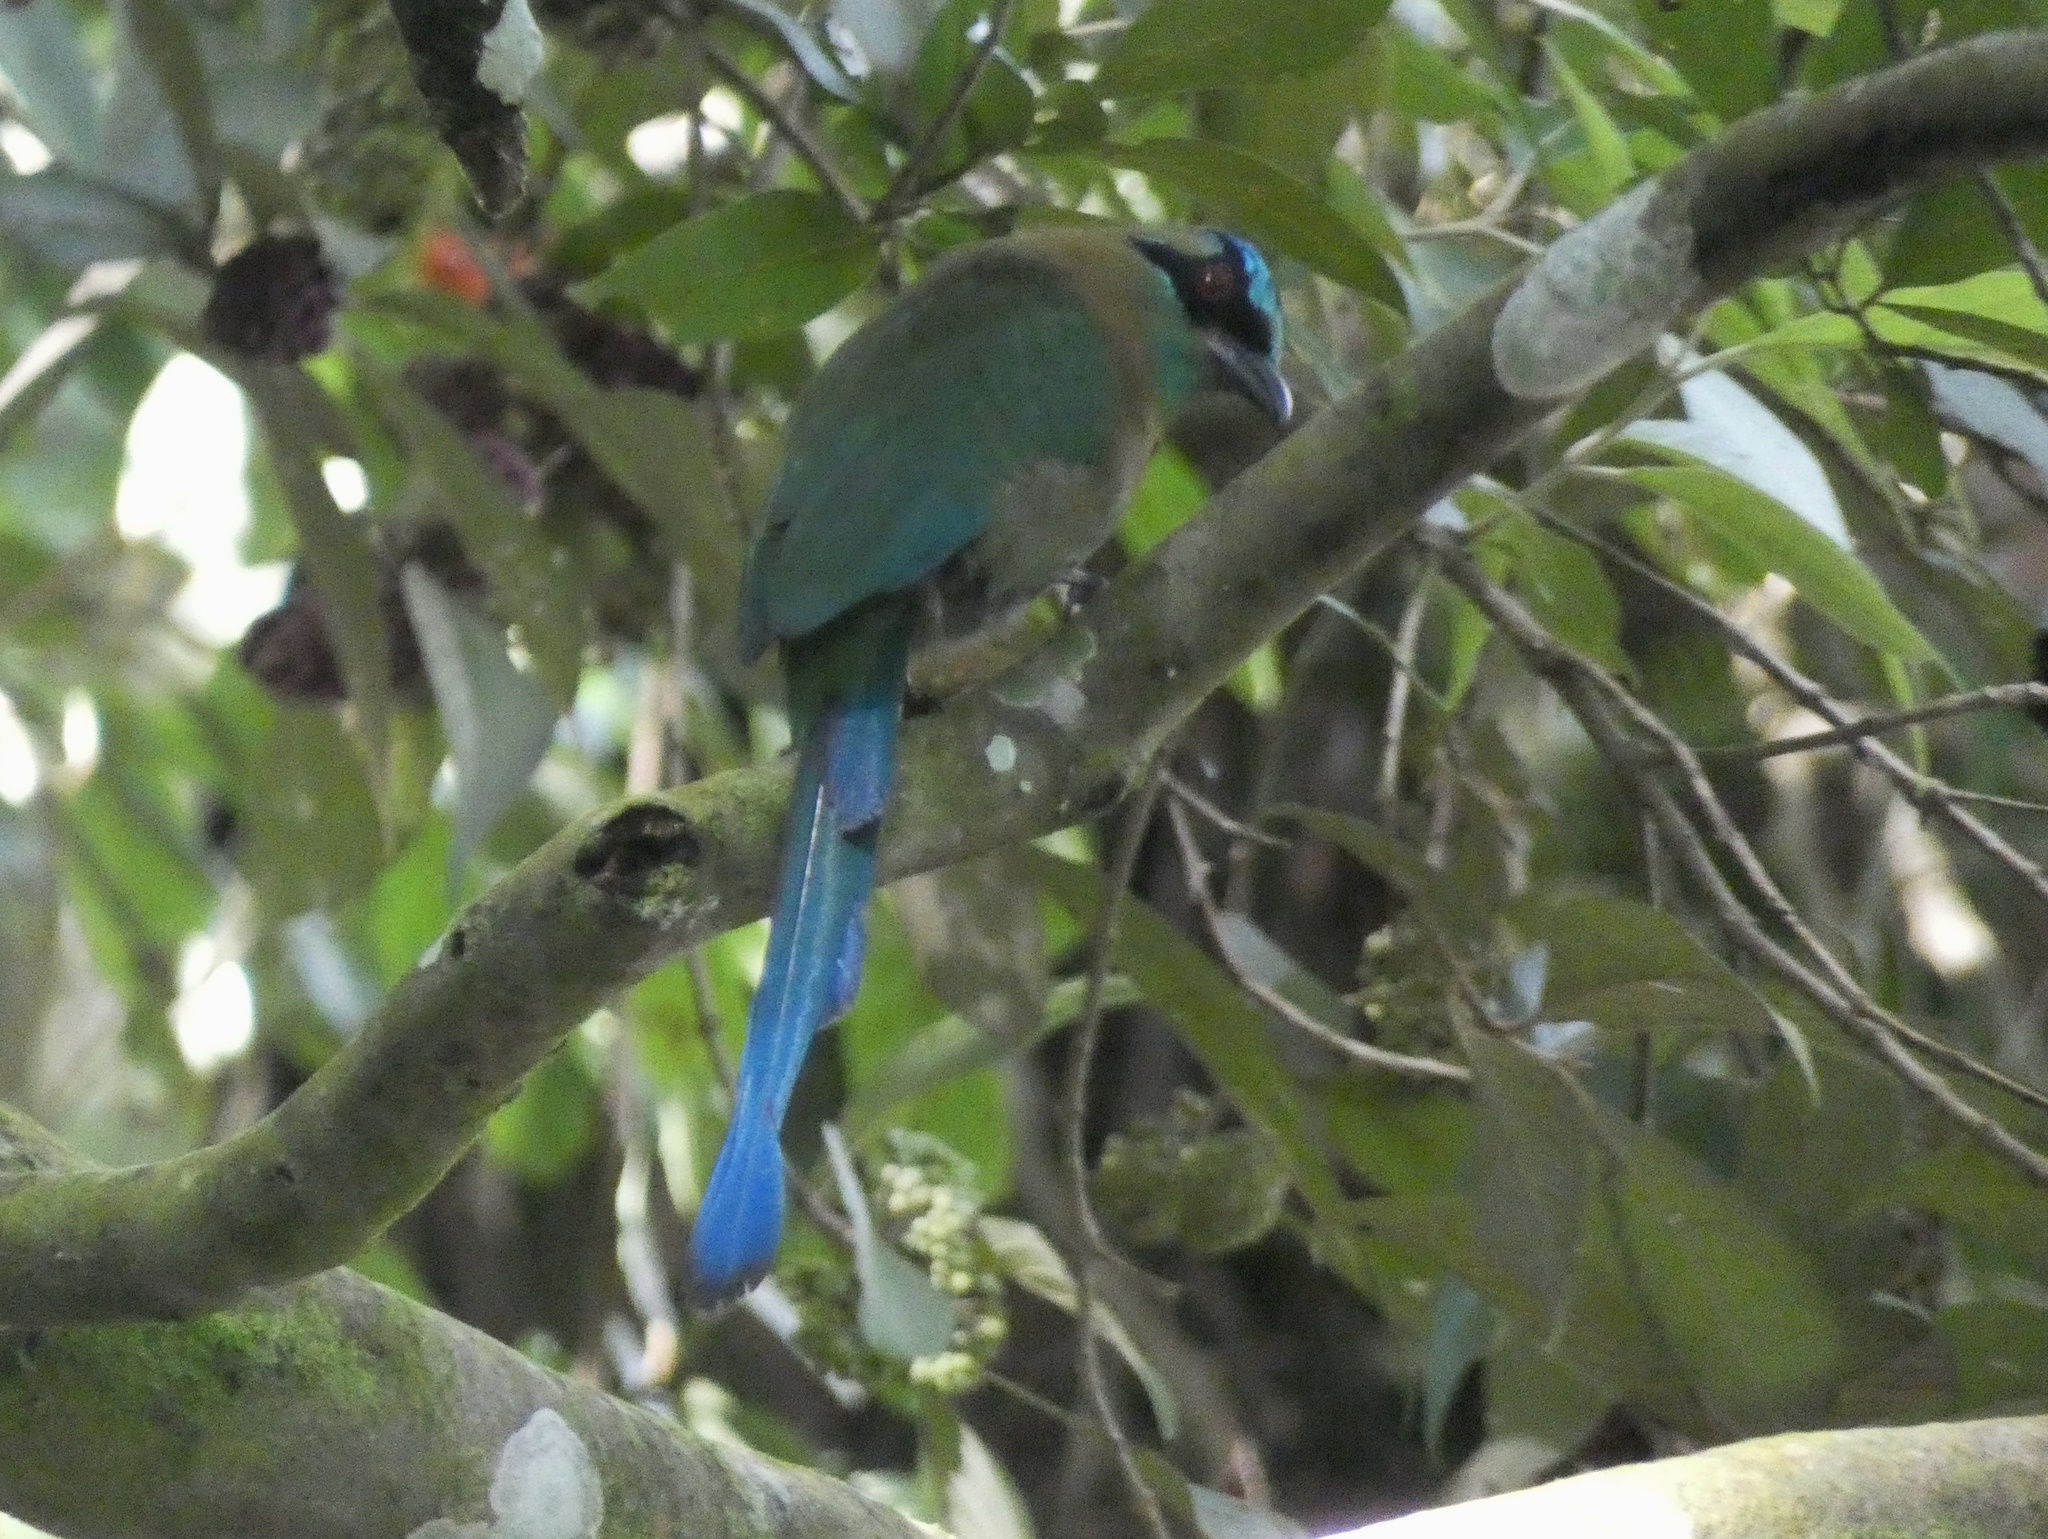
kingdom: Animalia
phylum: Chordata
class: Aves
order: Coraciiformes
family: Momotidae
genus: Momotus
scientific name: Momotus lessonii
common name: Lesson's motmot
